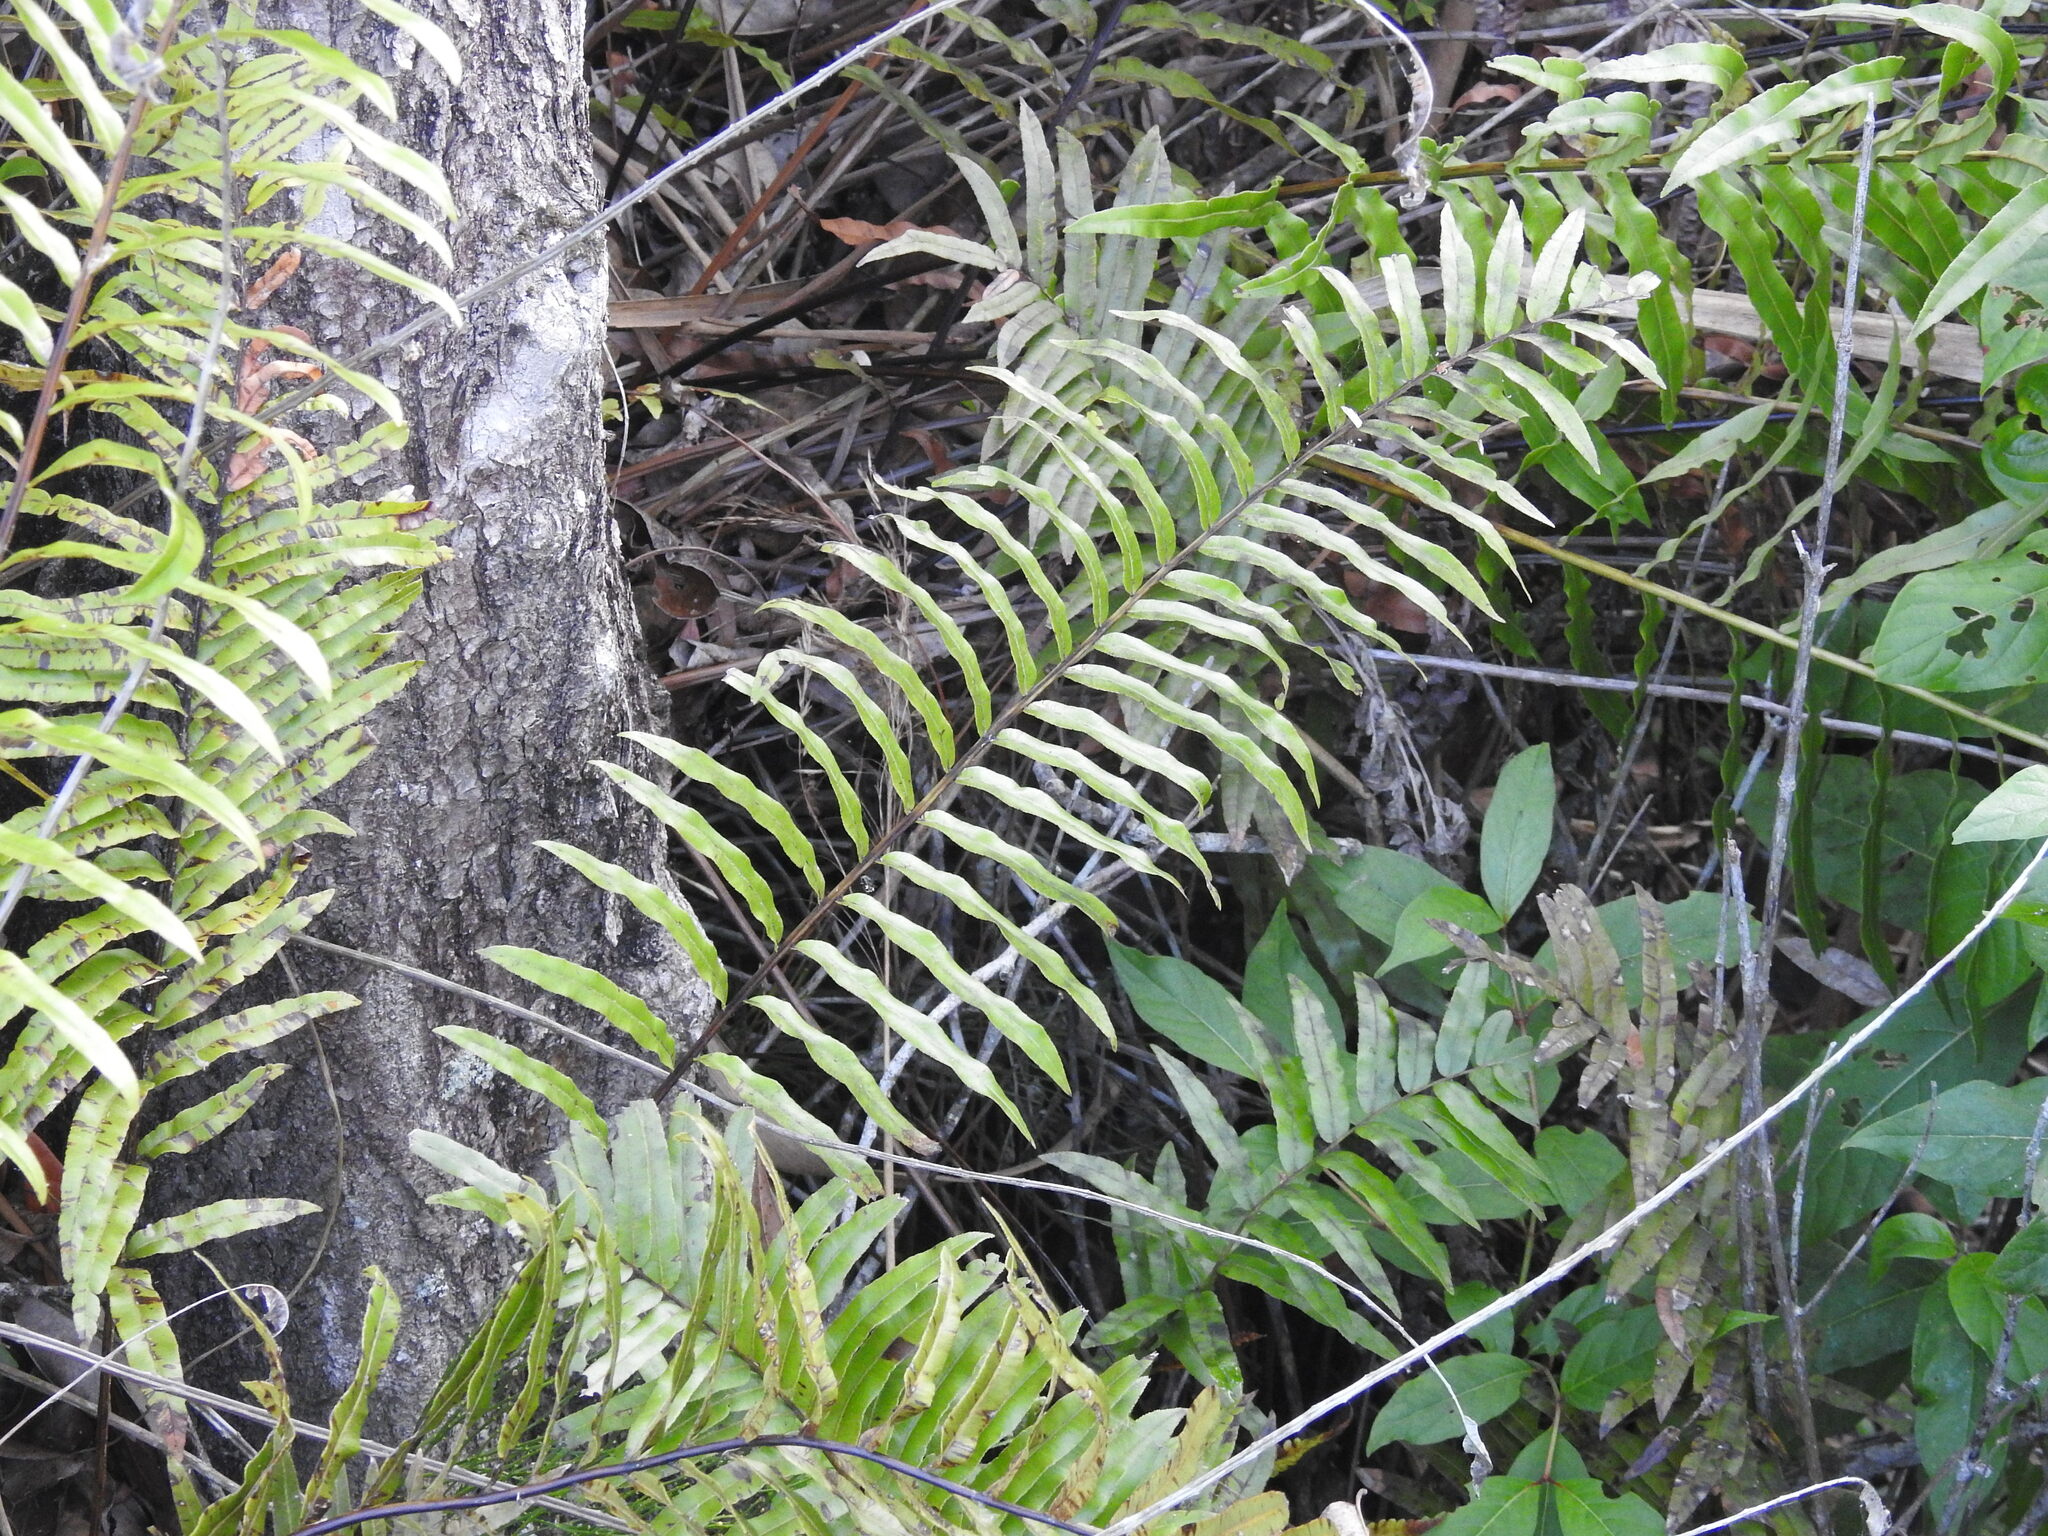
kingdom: Plantae
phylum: Tracheophyta
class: Polypodiopsida
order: Polypodiales
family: Blechnaceae
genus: Telmatoblechnum
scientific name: Telmatoblechnum serrulatum
